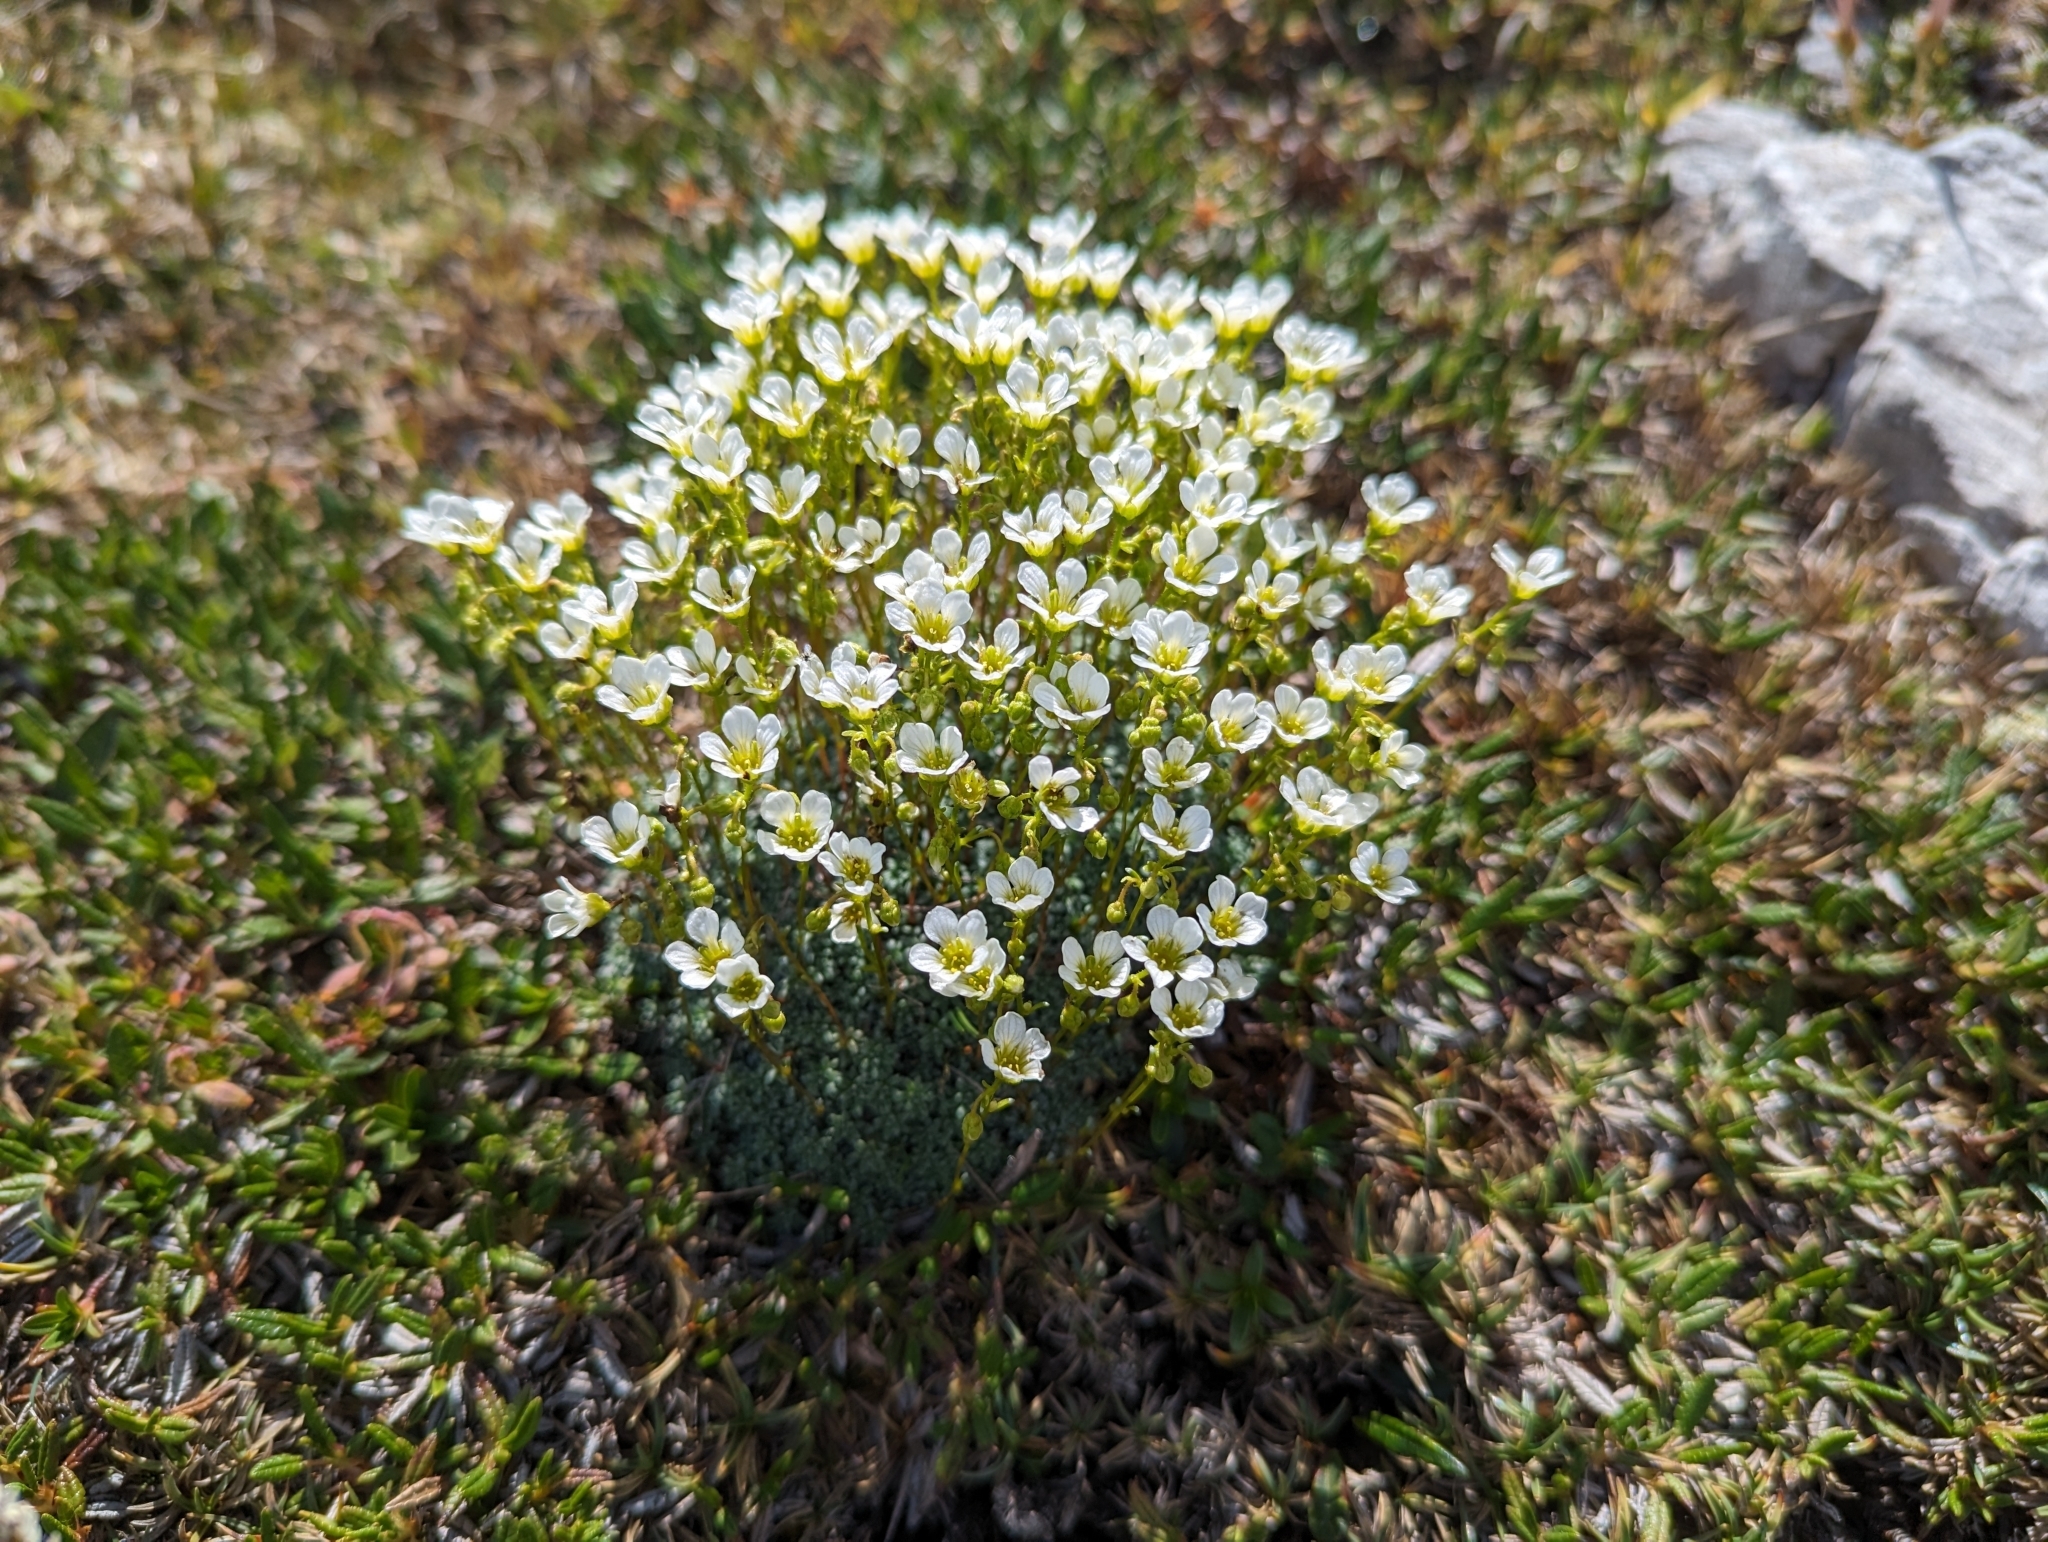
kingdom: Plantae
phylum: Tracheophyta
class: Magnoliopsida
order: Saxifragales
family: Saxifragaceae
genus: Saxifraga
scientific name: Saxifraga caesia
